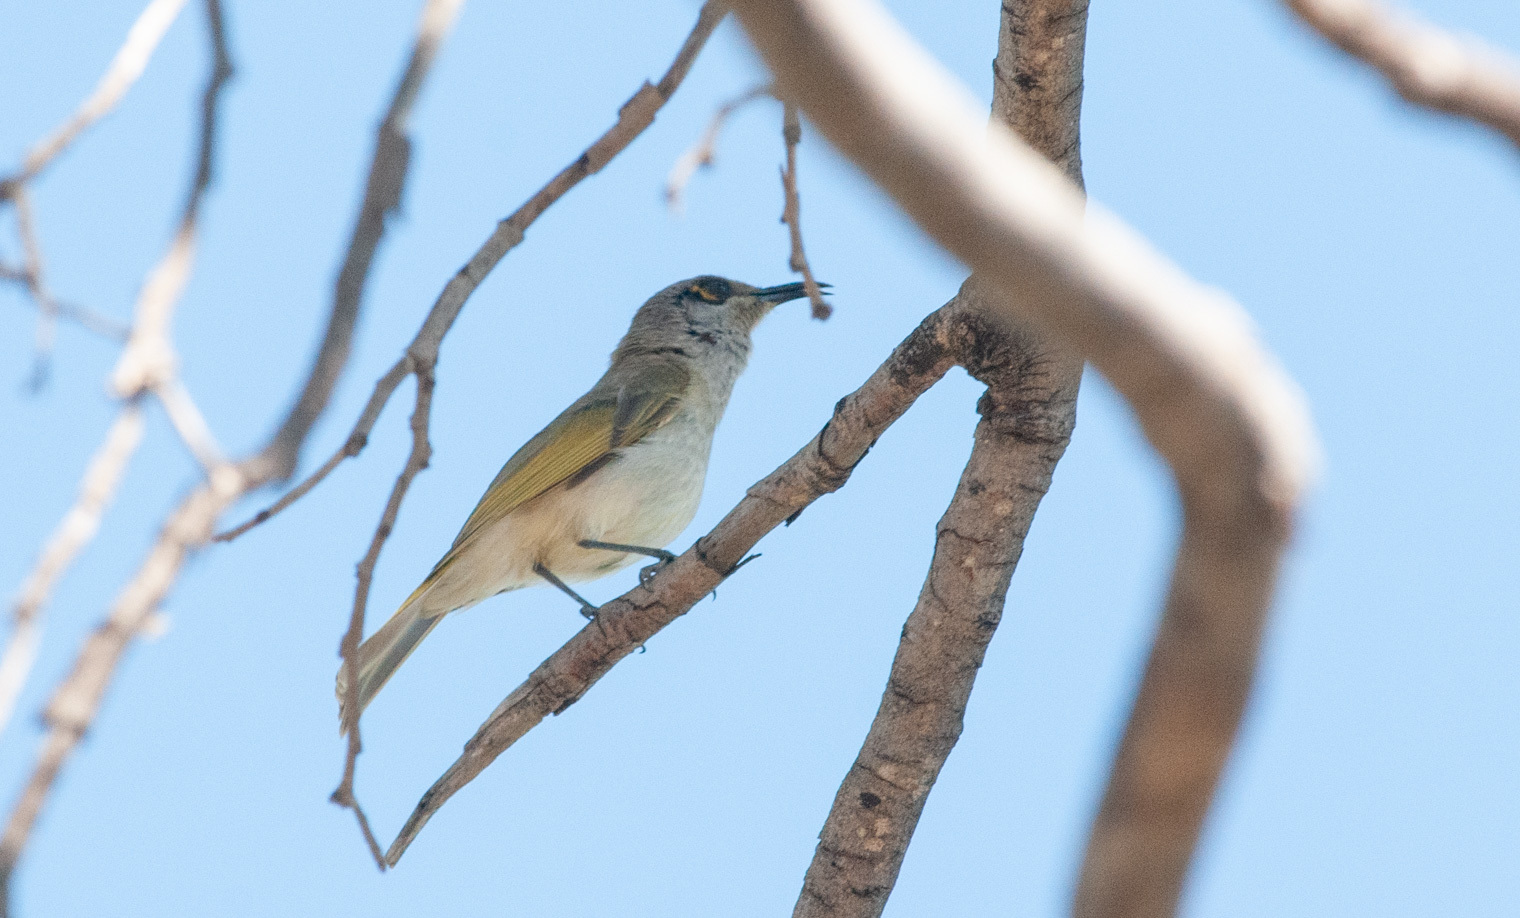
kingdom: Animalia
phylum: Chordata
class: Aves
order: Passeriformes
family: Meliphagidae
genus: Lichmera
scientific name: Lichmera indistincta
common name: Brown honeyeater
